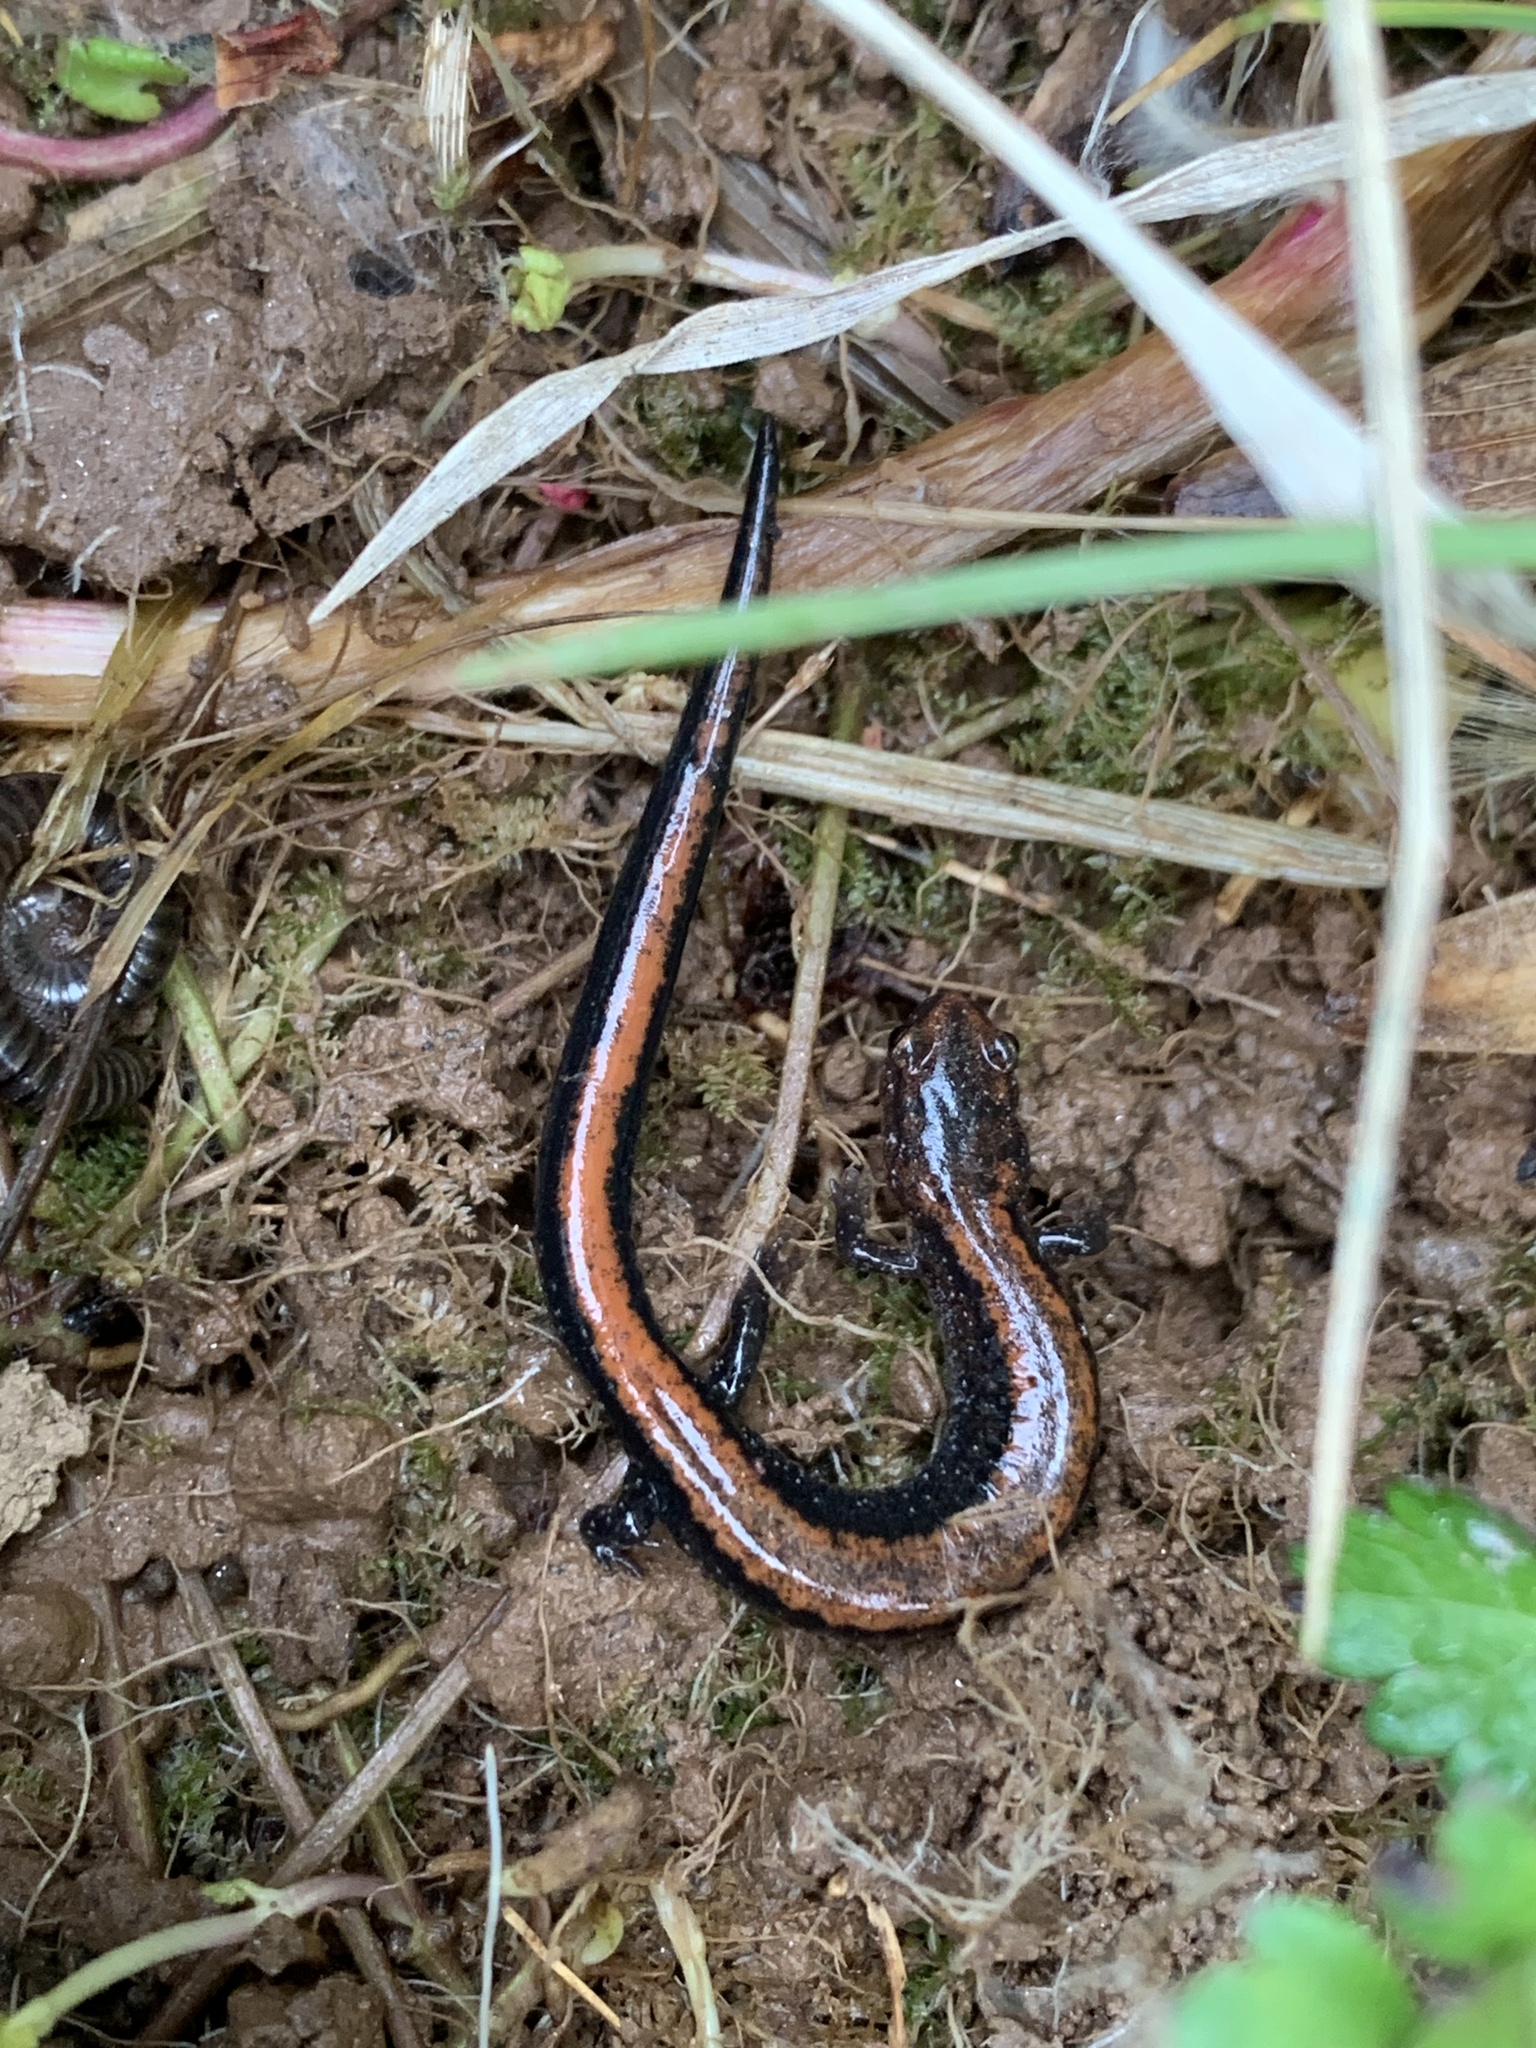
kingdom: Animalia
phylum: Chordata
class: Amphibia
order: Caudata
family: Plethodontidae
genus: Plethodon
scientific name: Plethodon cinereus
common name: Redback salamander
